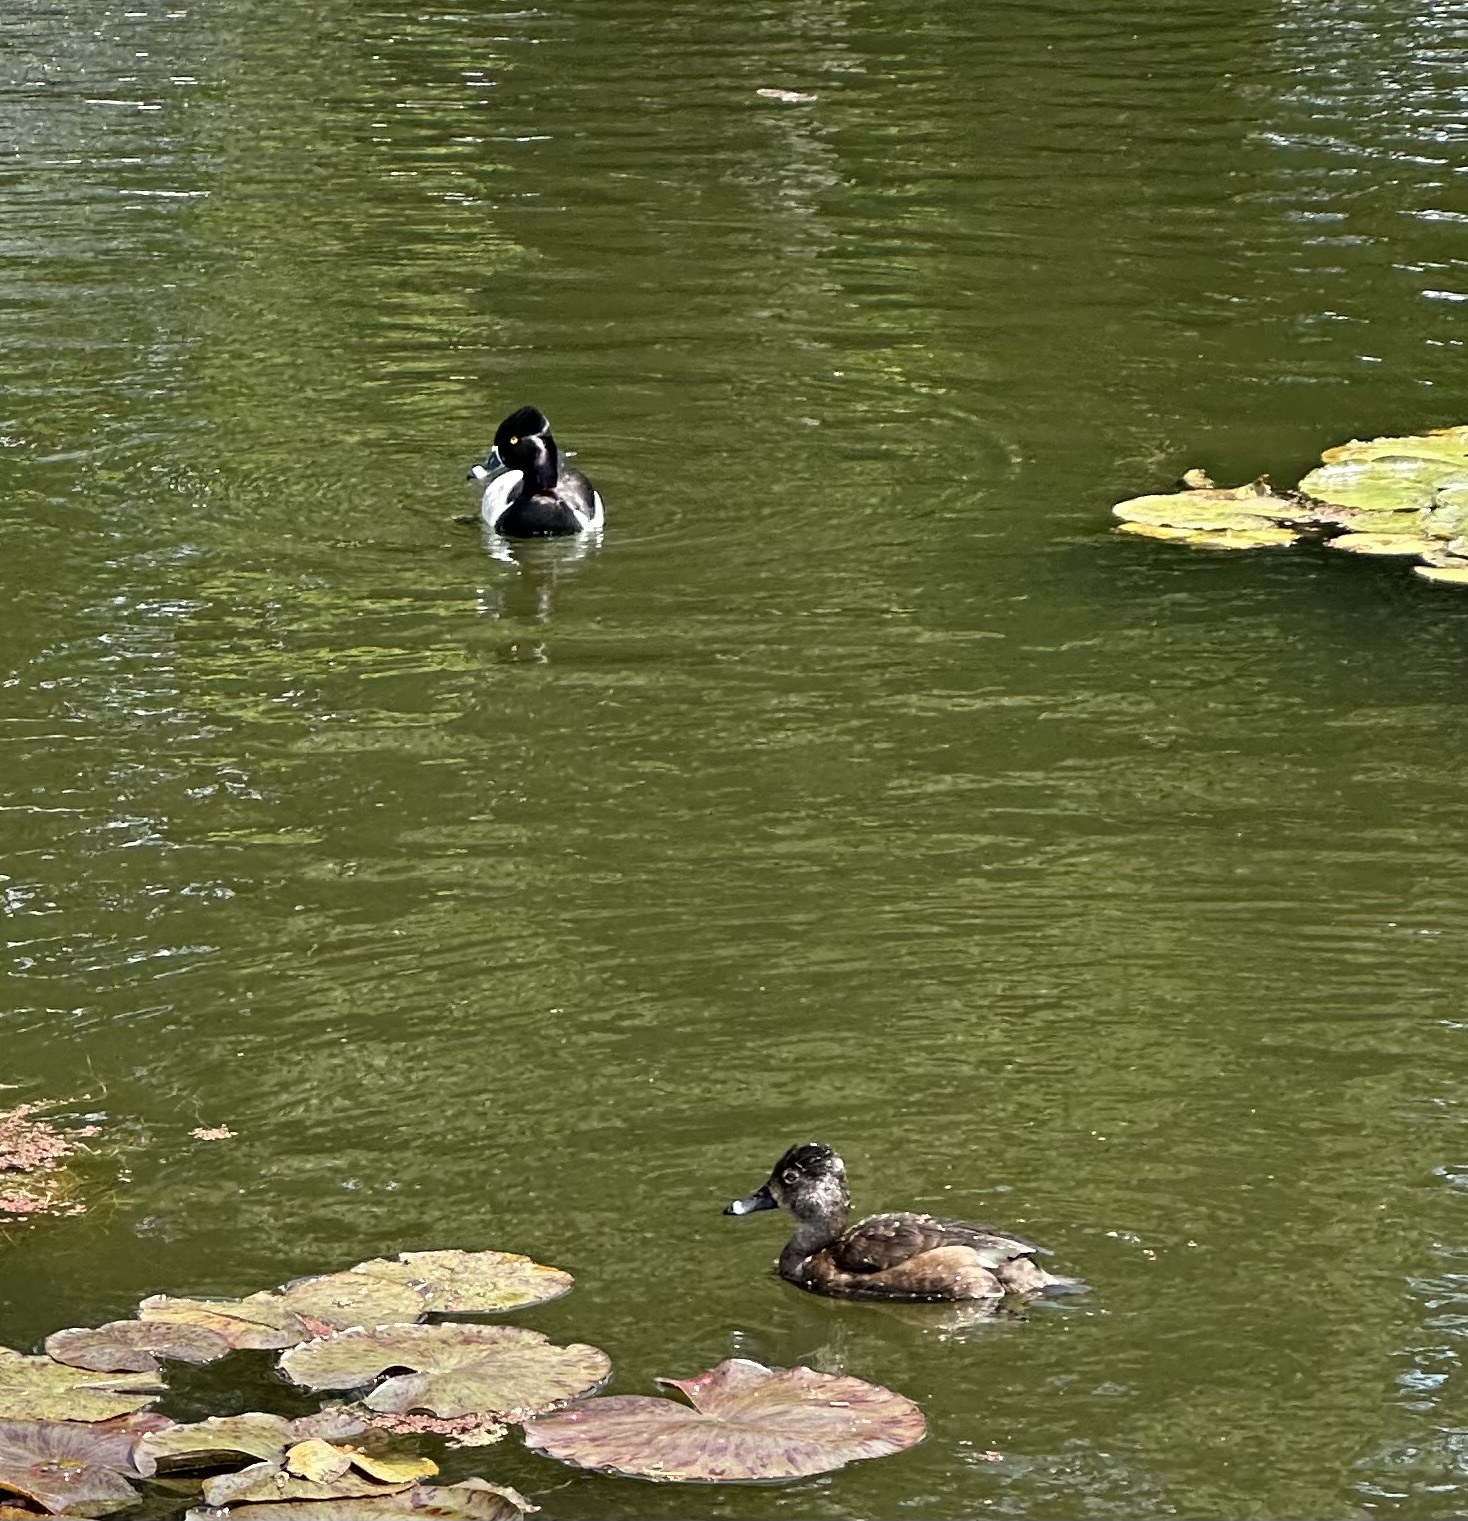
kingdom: Animalia
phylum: Chordata
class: Aves
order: Anseriformes
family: Anatidae
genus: Aythya
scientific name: Aythya collaris
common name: Ring-necked duck
